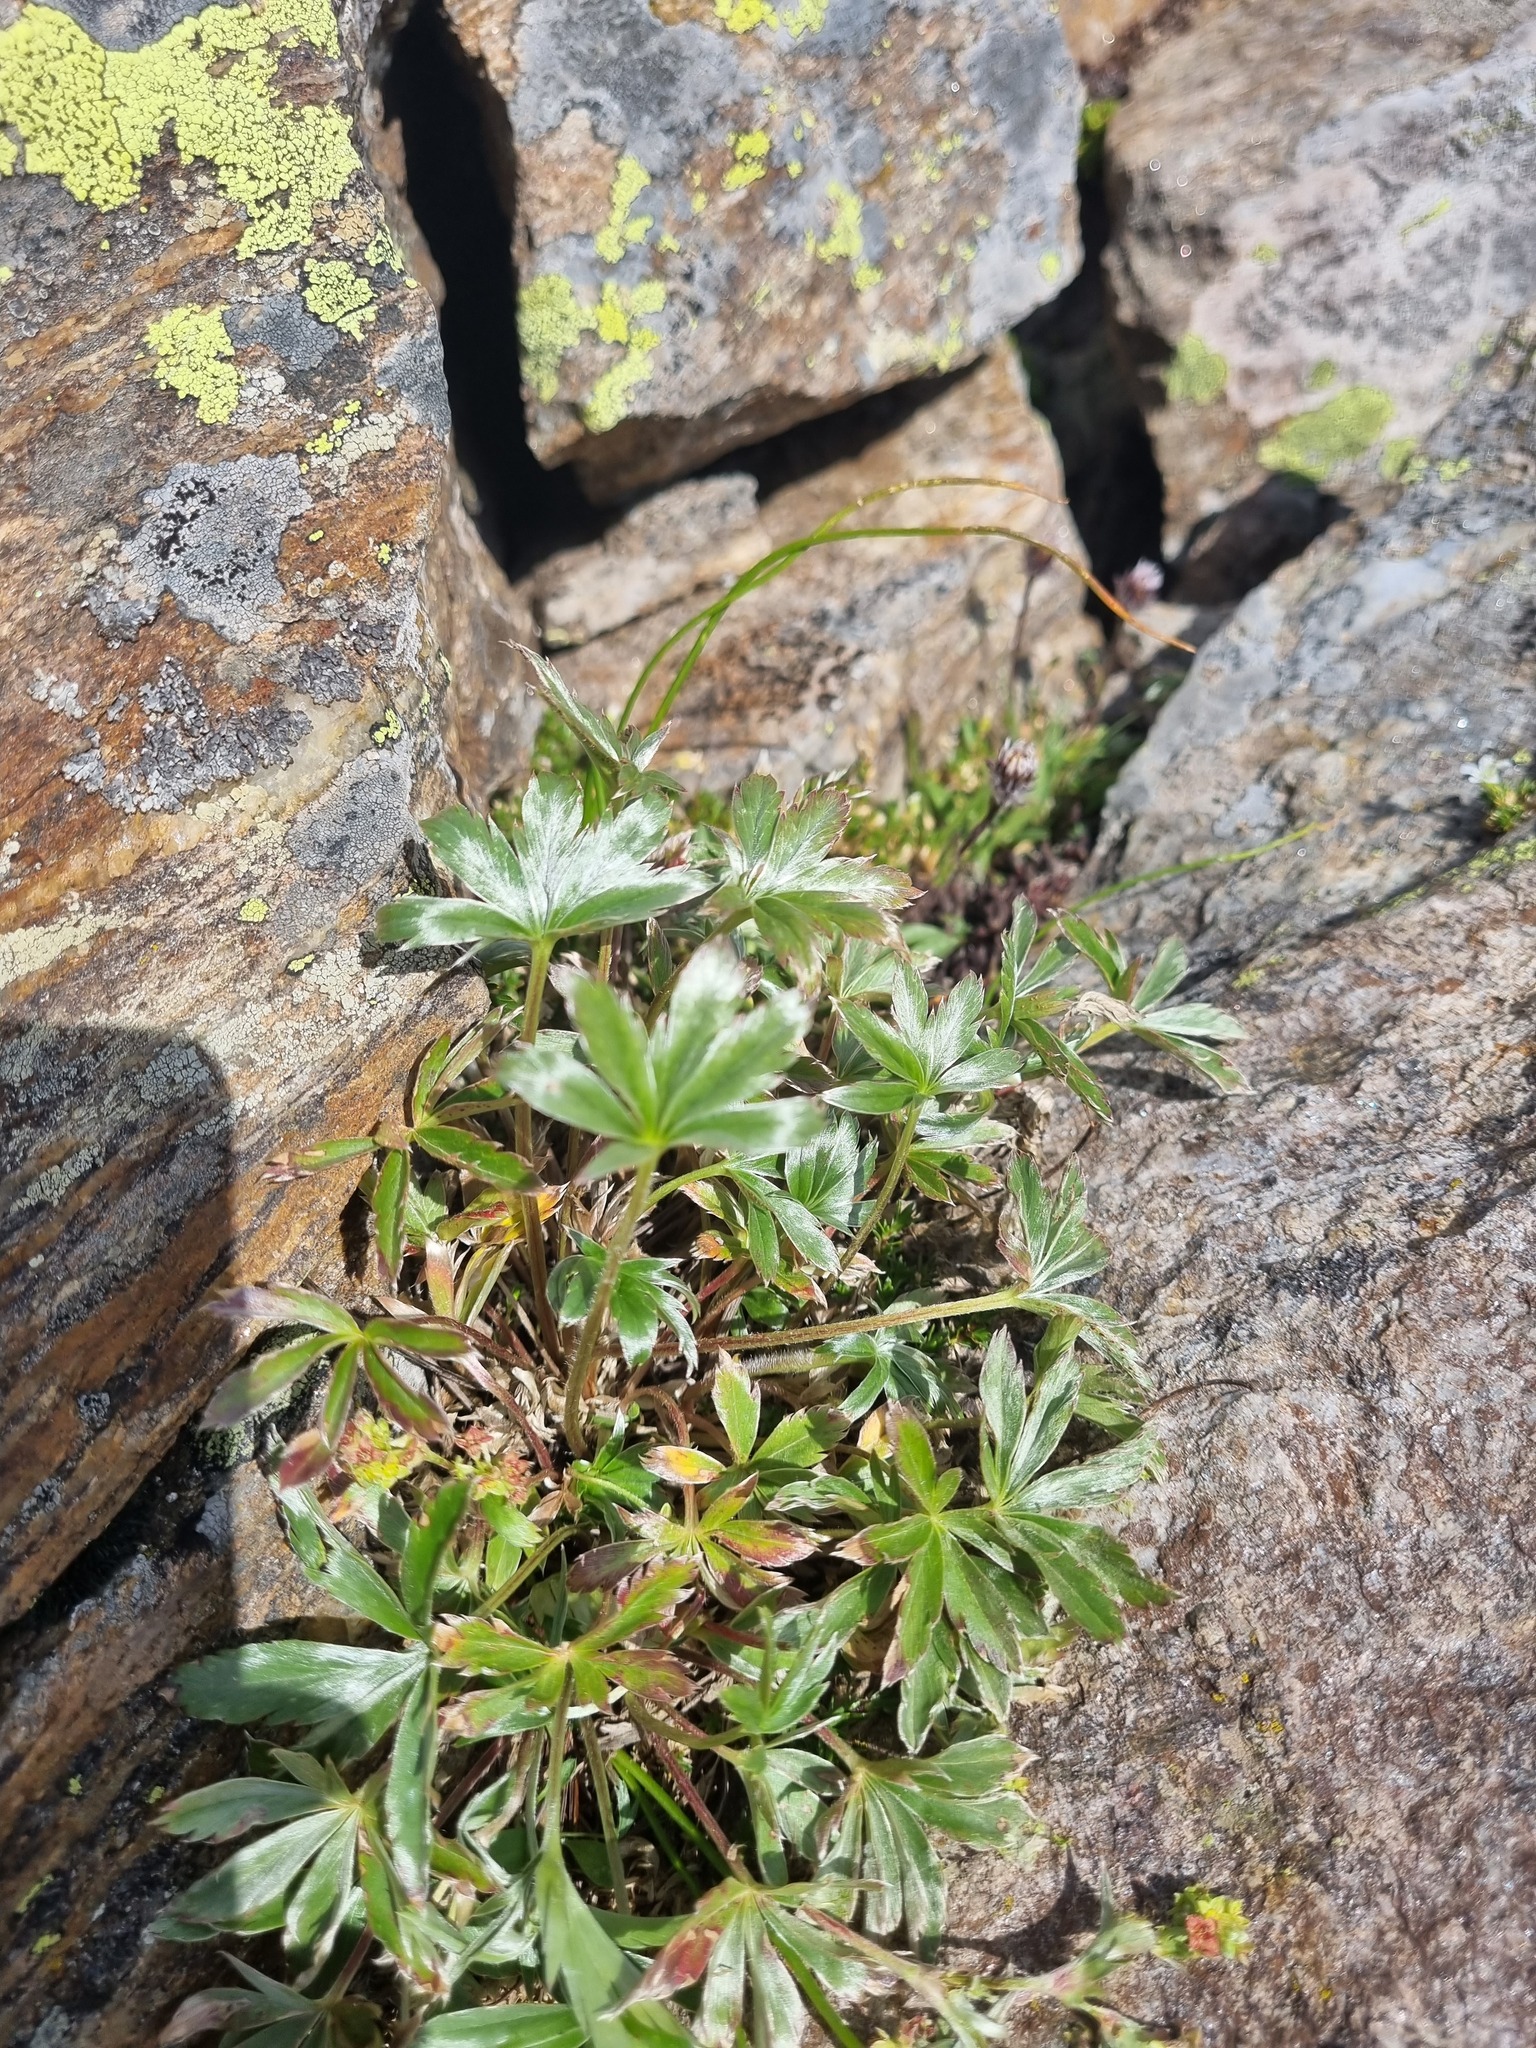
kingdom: Plantae
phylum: Tracheophyta
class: Magnoliopsida
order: Rosales
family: Rosaceae
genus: Alchemilla
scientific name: Alchemilla sericea
